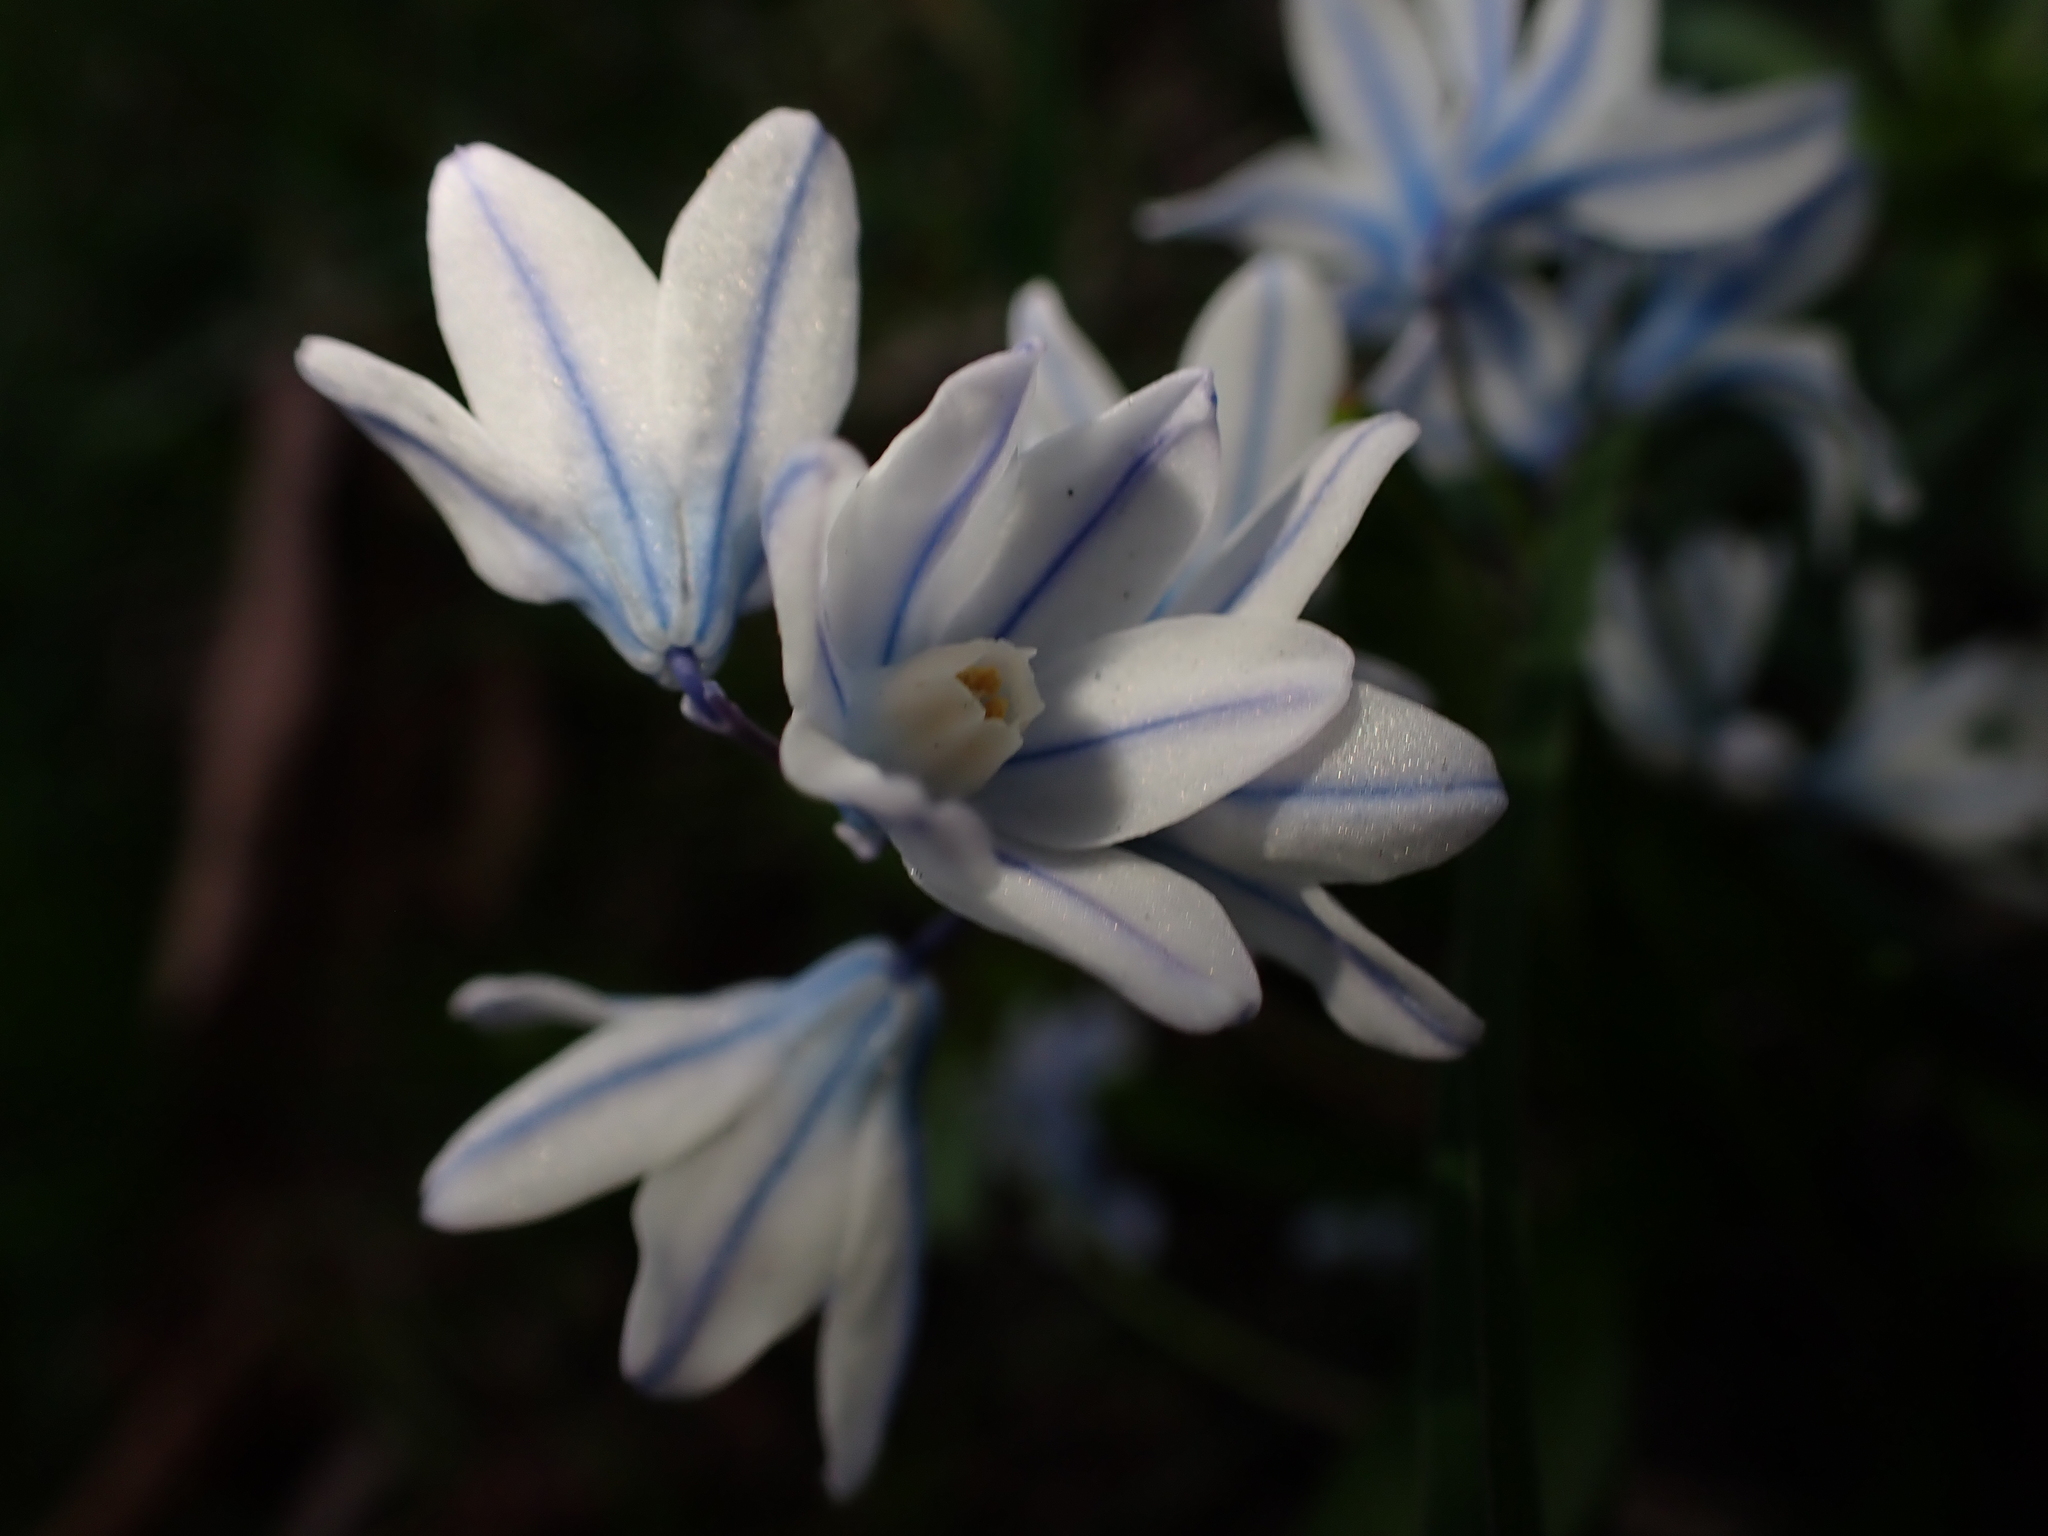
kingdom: Plantae
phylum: Tracheophyta
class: Liliopsida
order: Asparagales
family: Asparagaceae
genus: Puschkinia
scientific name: Puschkinia scilloides
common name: Striped squill
